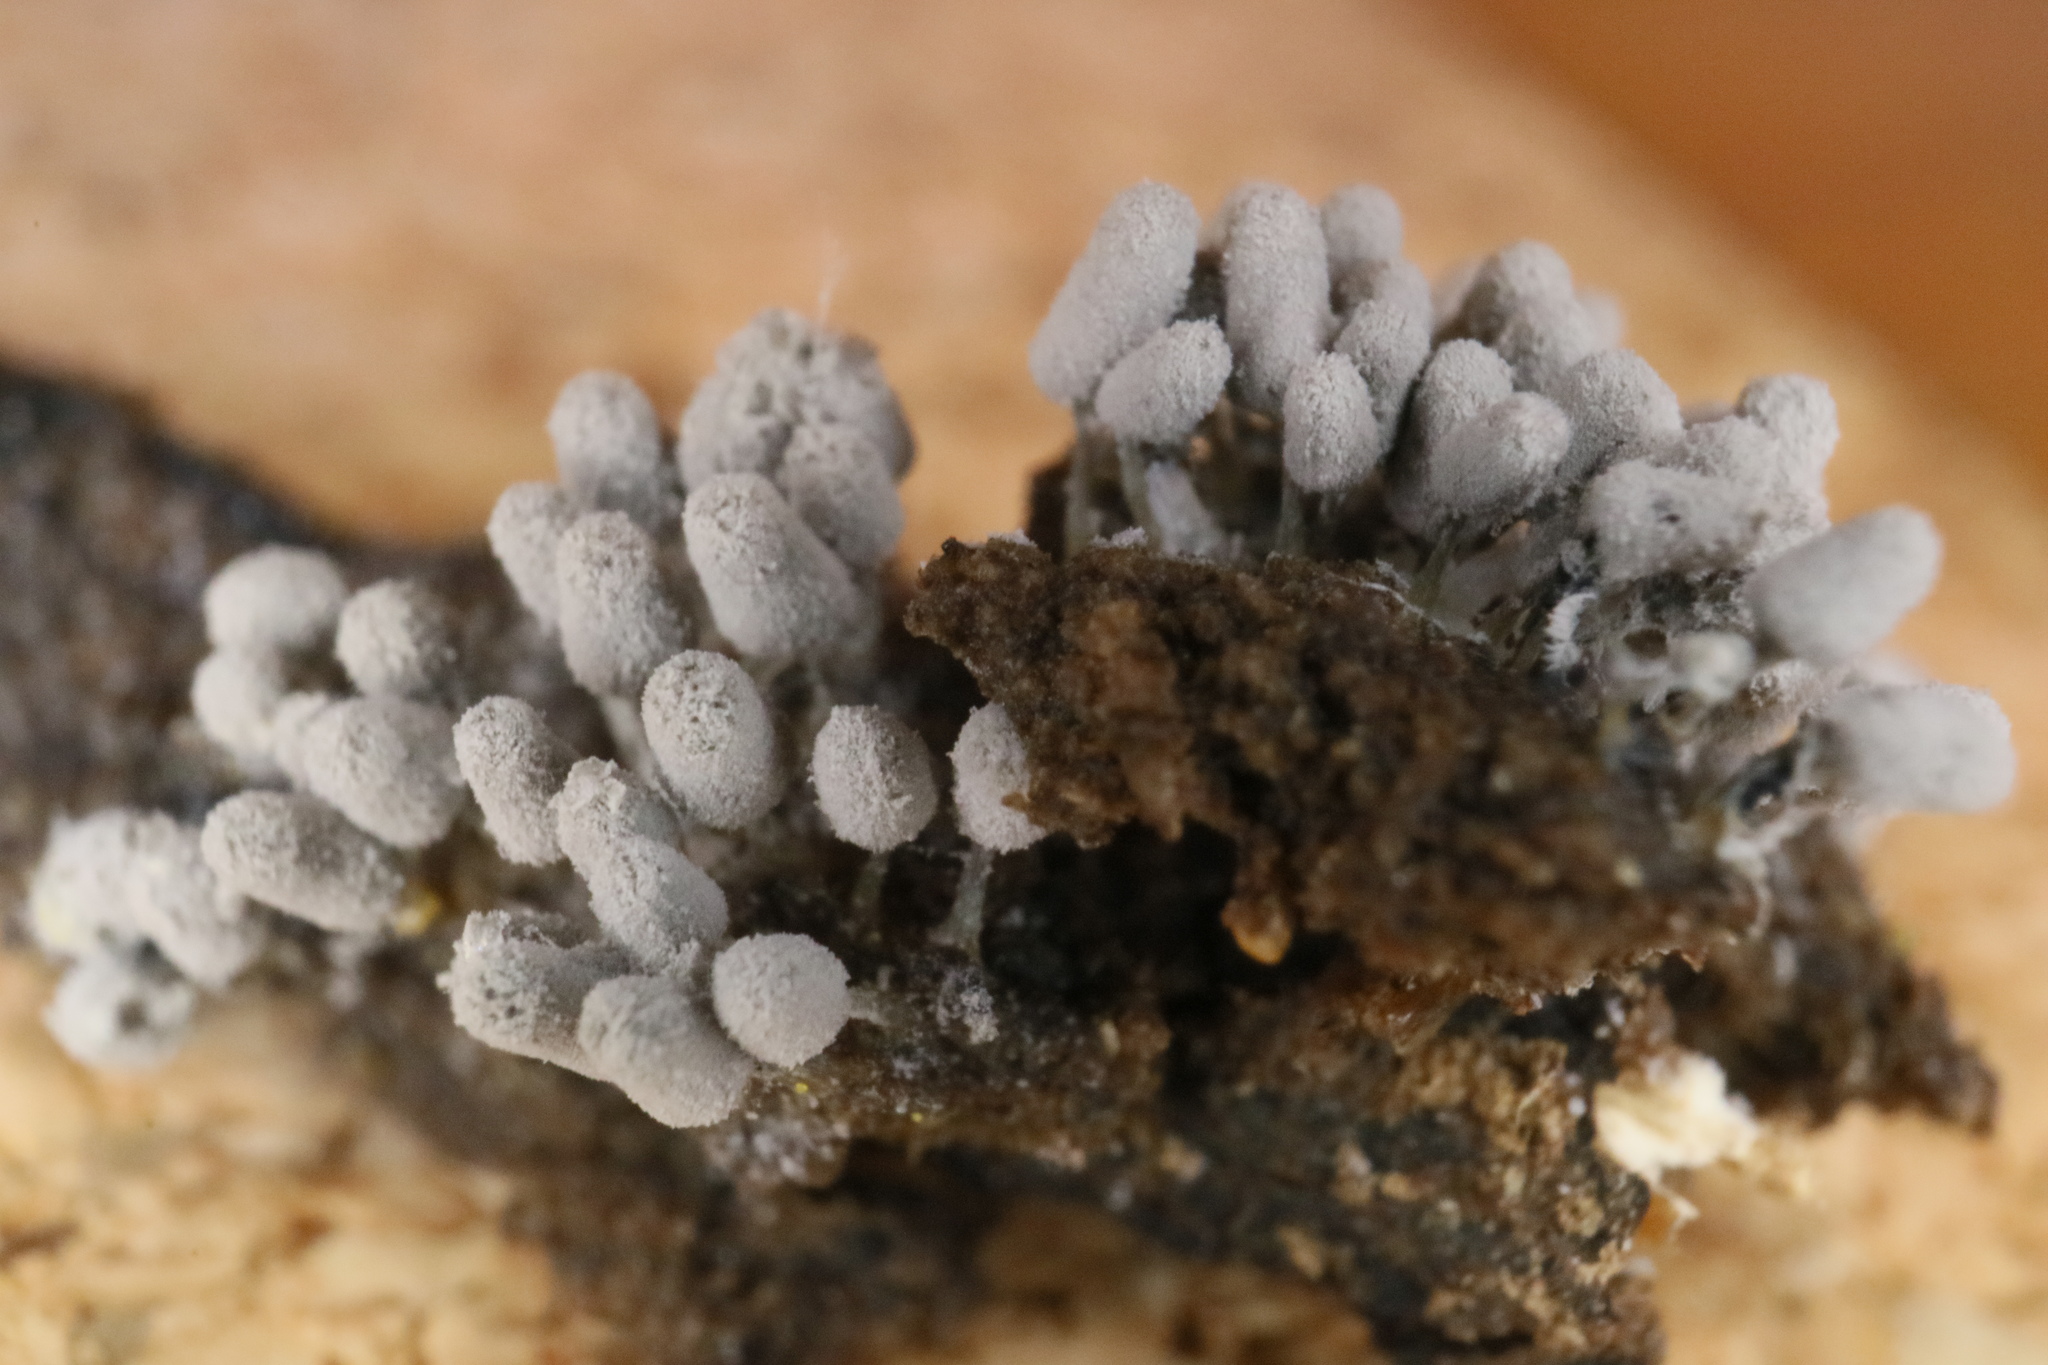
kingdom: Protozoa
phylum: Mycetozoa
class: Myxomycetes
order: Trichiales
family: Arcyriaceae
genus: Arcyria
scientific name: Arcyria cinerea
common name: White carnival candy slime mold
